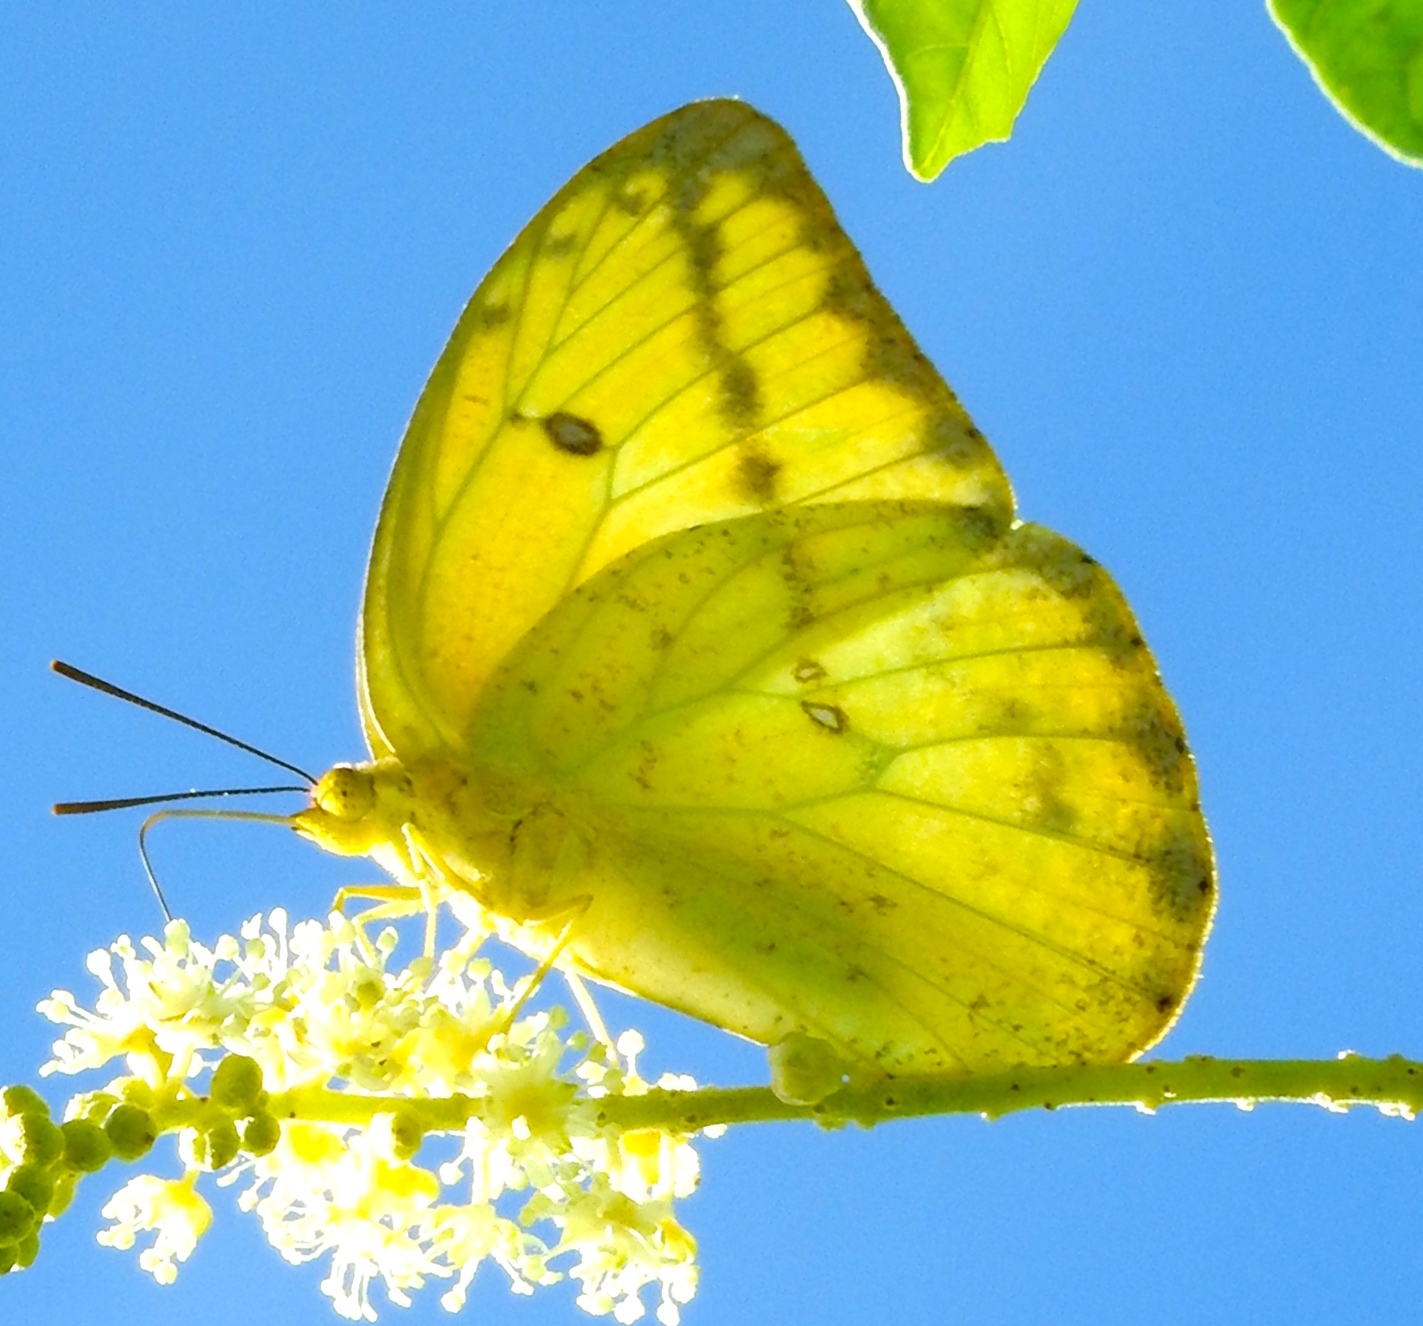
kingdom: Animalia
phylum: Arthropoda
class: Insecta
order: Lepidoptera
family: Pieridae
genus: Phoebis
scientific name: Phoebis agarithe
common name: Large orange sulphur
